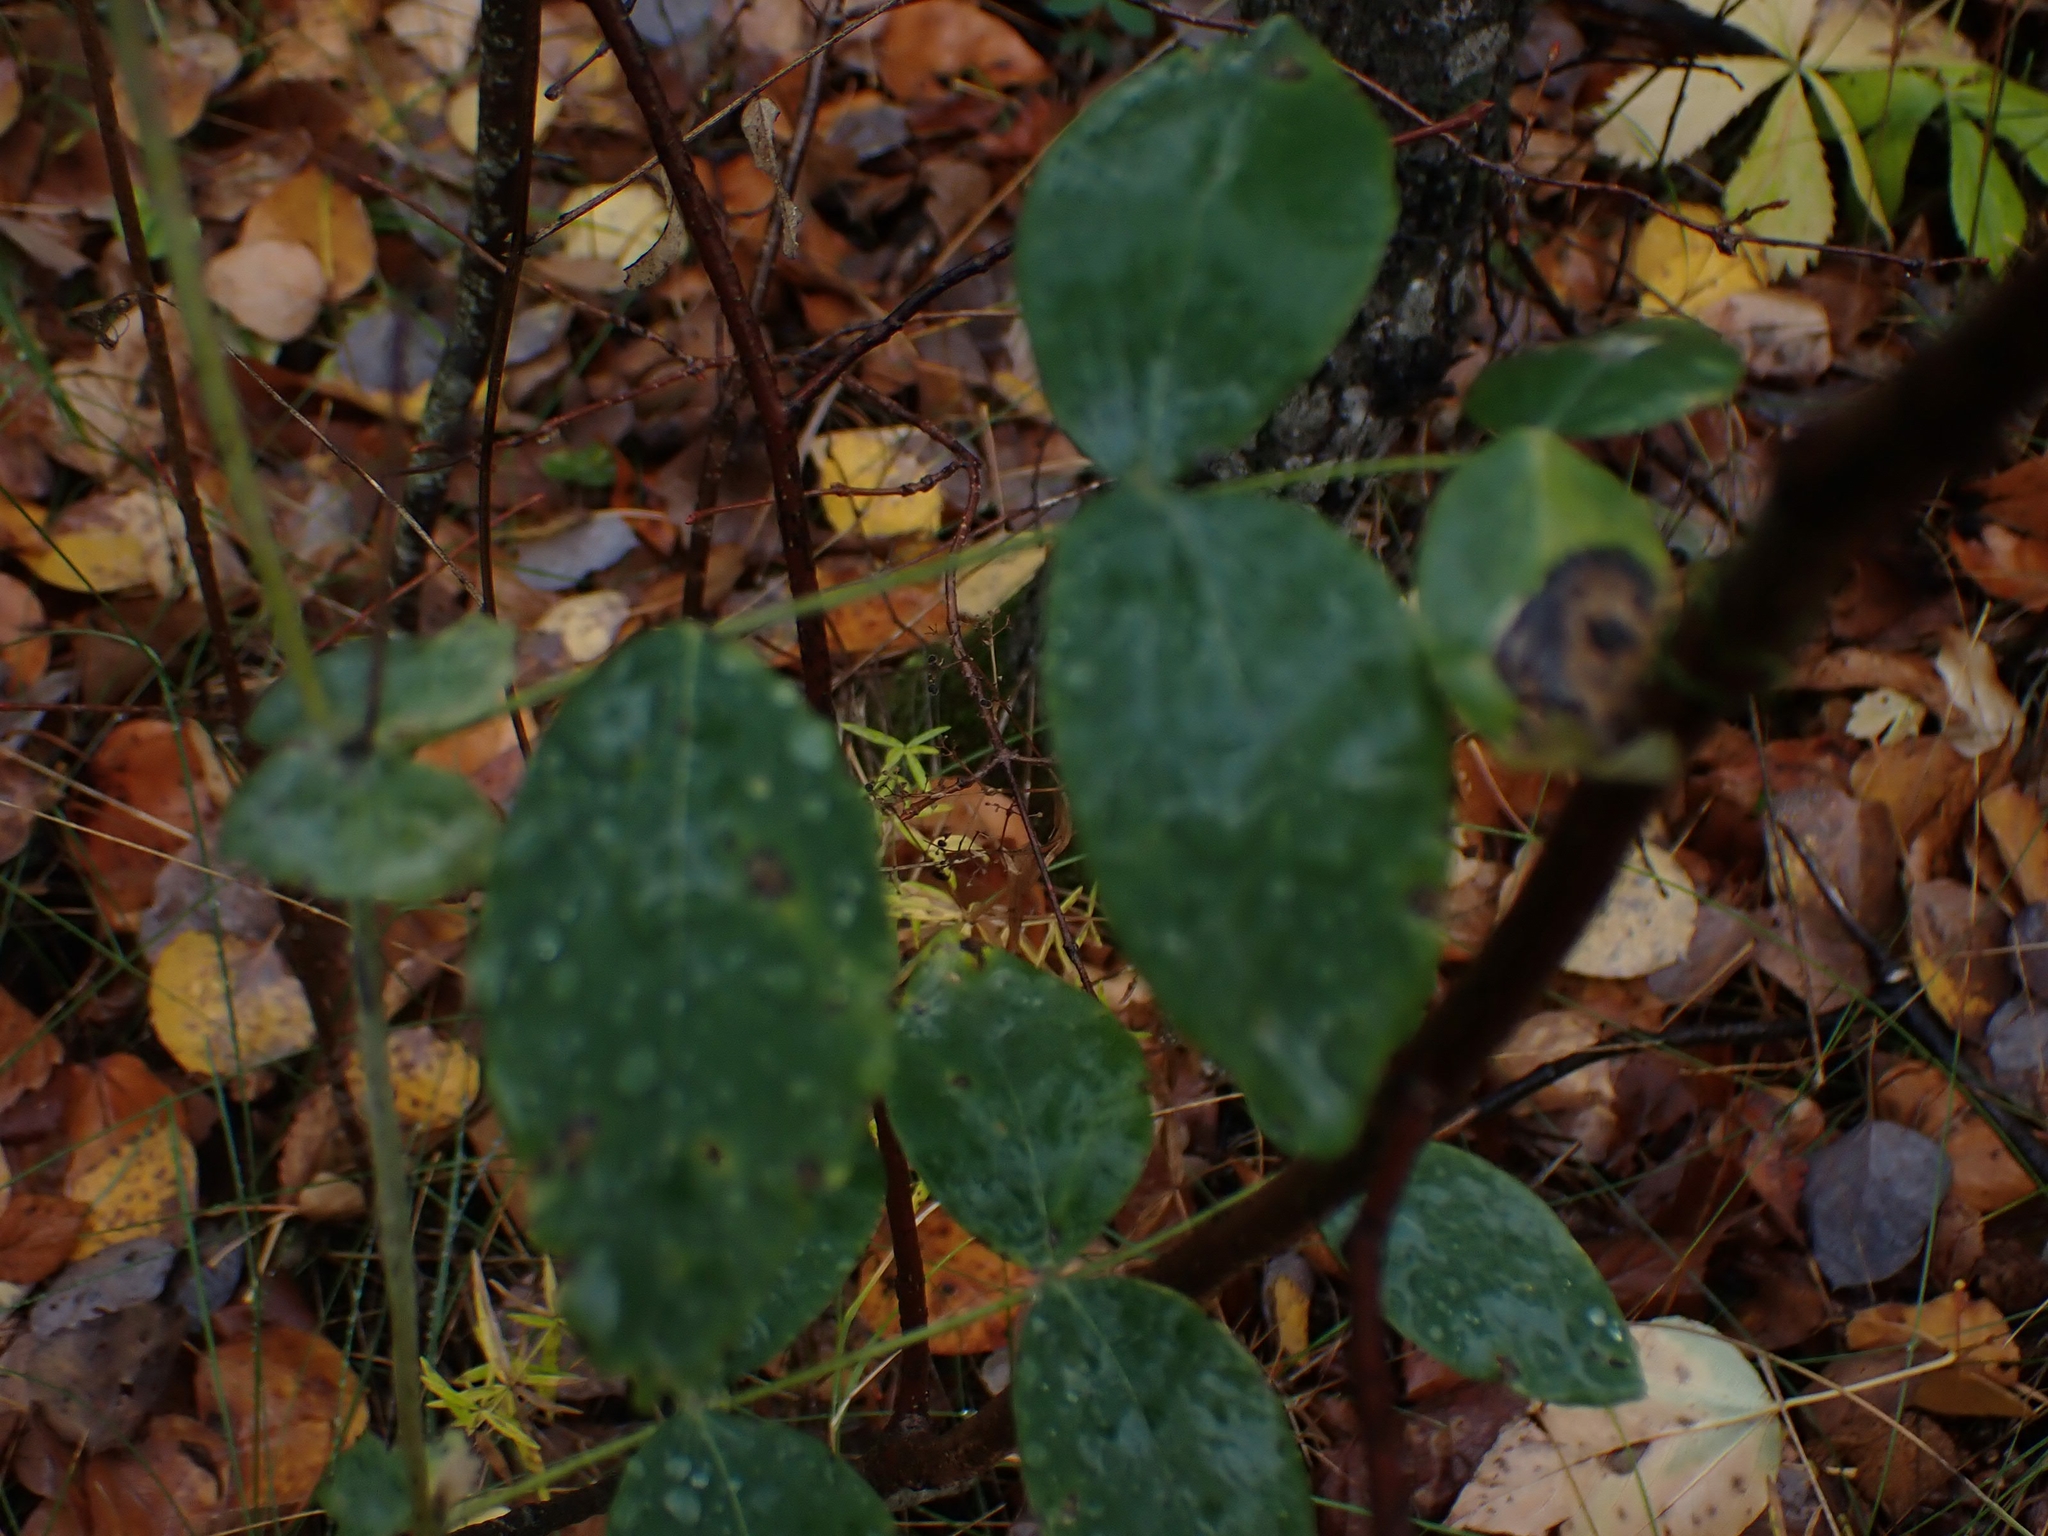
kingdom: Plantae
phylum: Tracheophyta
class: Magnoliopsida
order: Fabales
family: Fabaceae
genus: Lathyrus
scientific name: Lathyrus ochroleucus
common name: Pale vetchling
